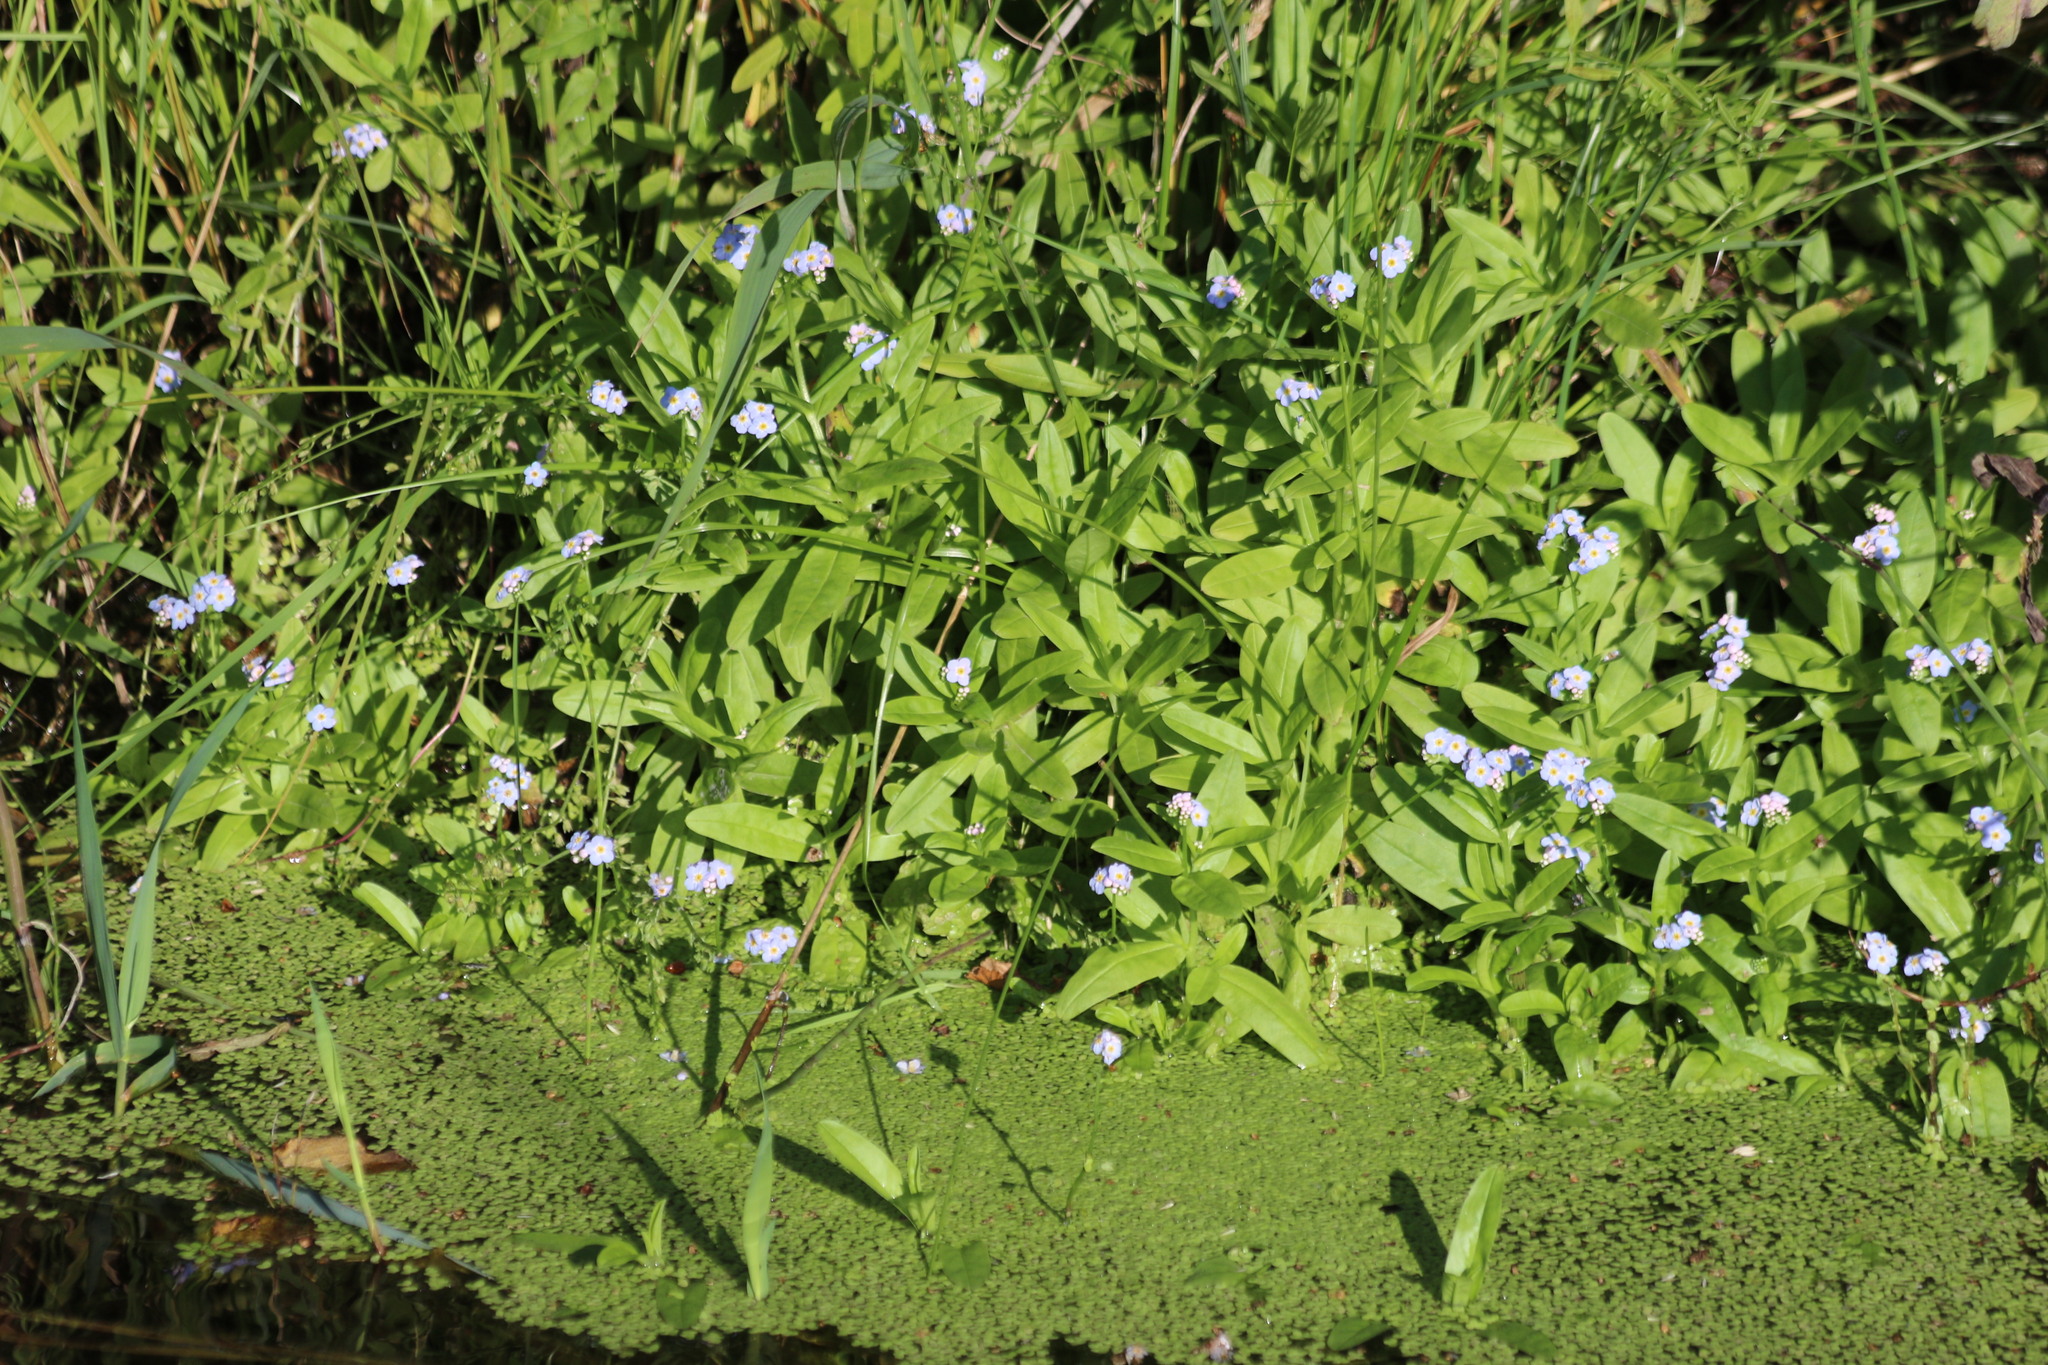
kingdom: Plantae
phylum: Tracheophyta
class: Magnoliopsida
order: Boraginales
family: Boraginaceae
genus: Myosotis
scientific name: Myosotis scorpioides
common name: Water forget-me-not
